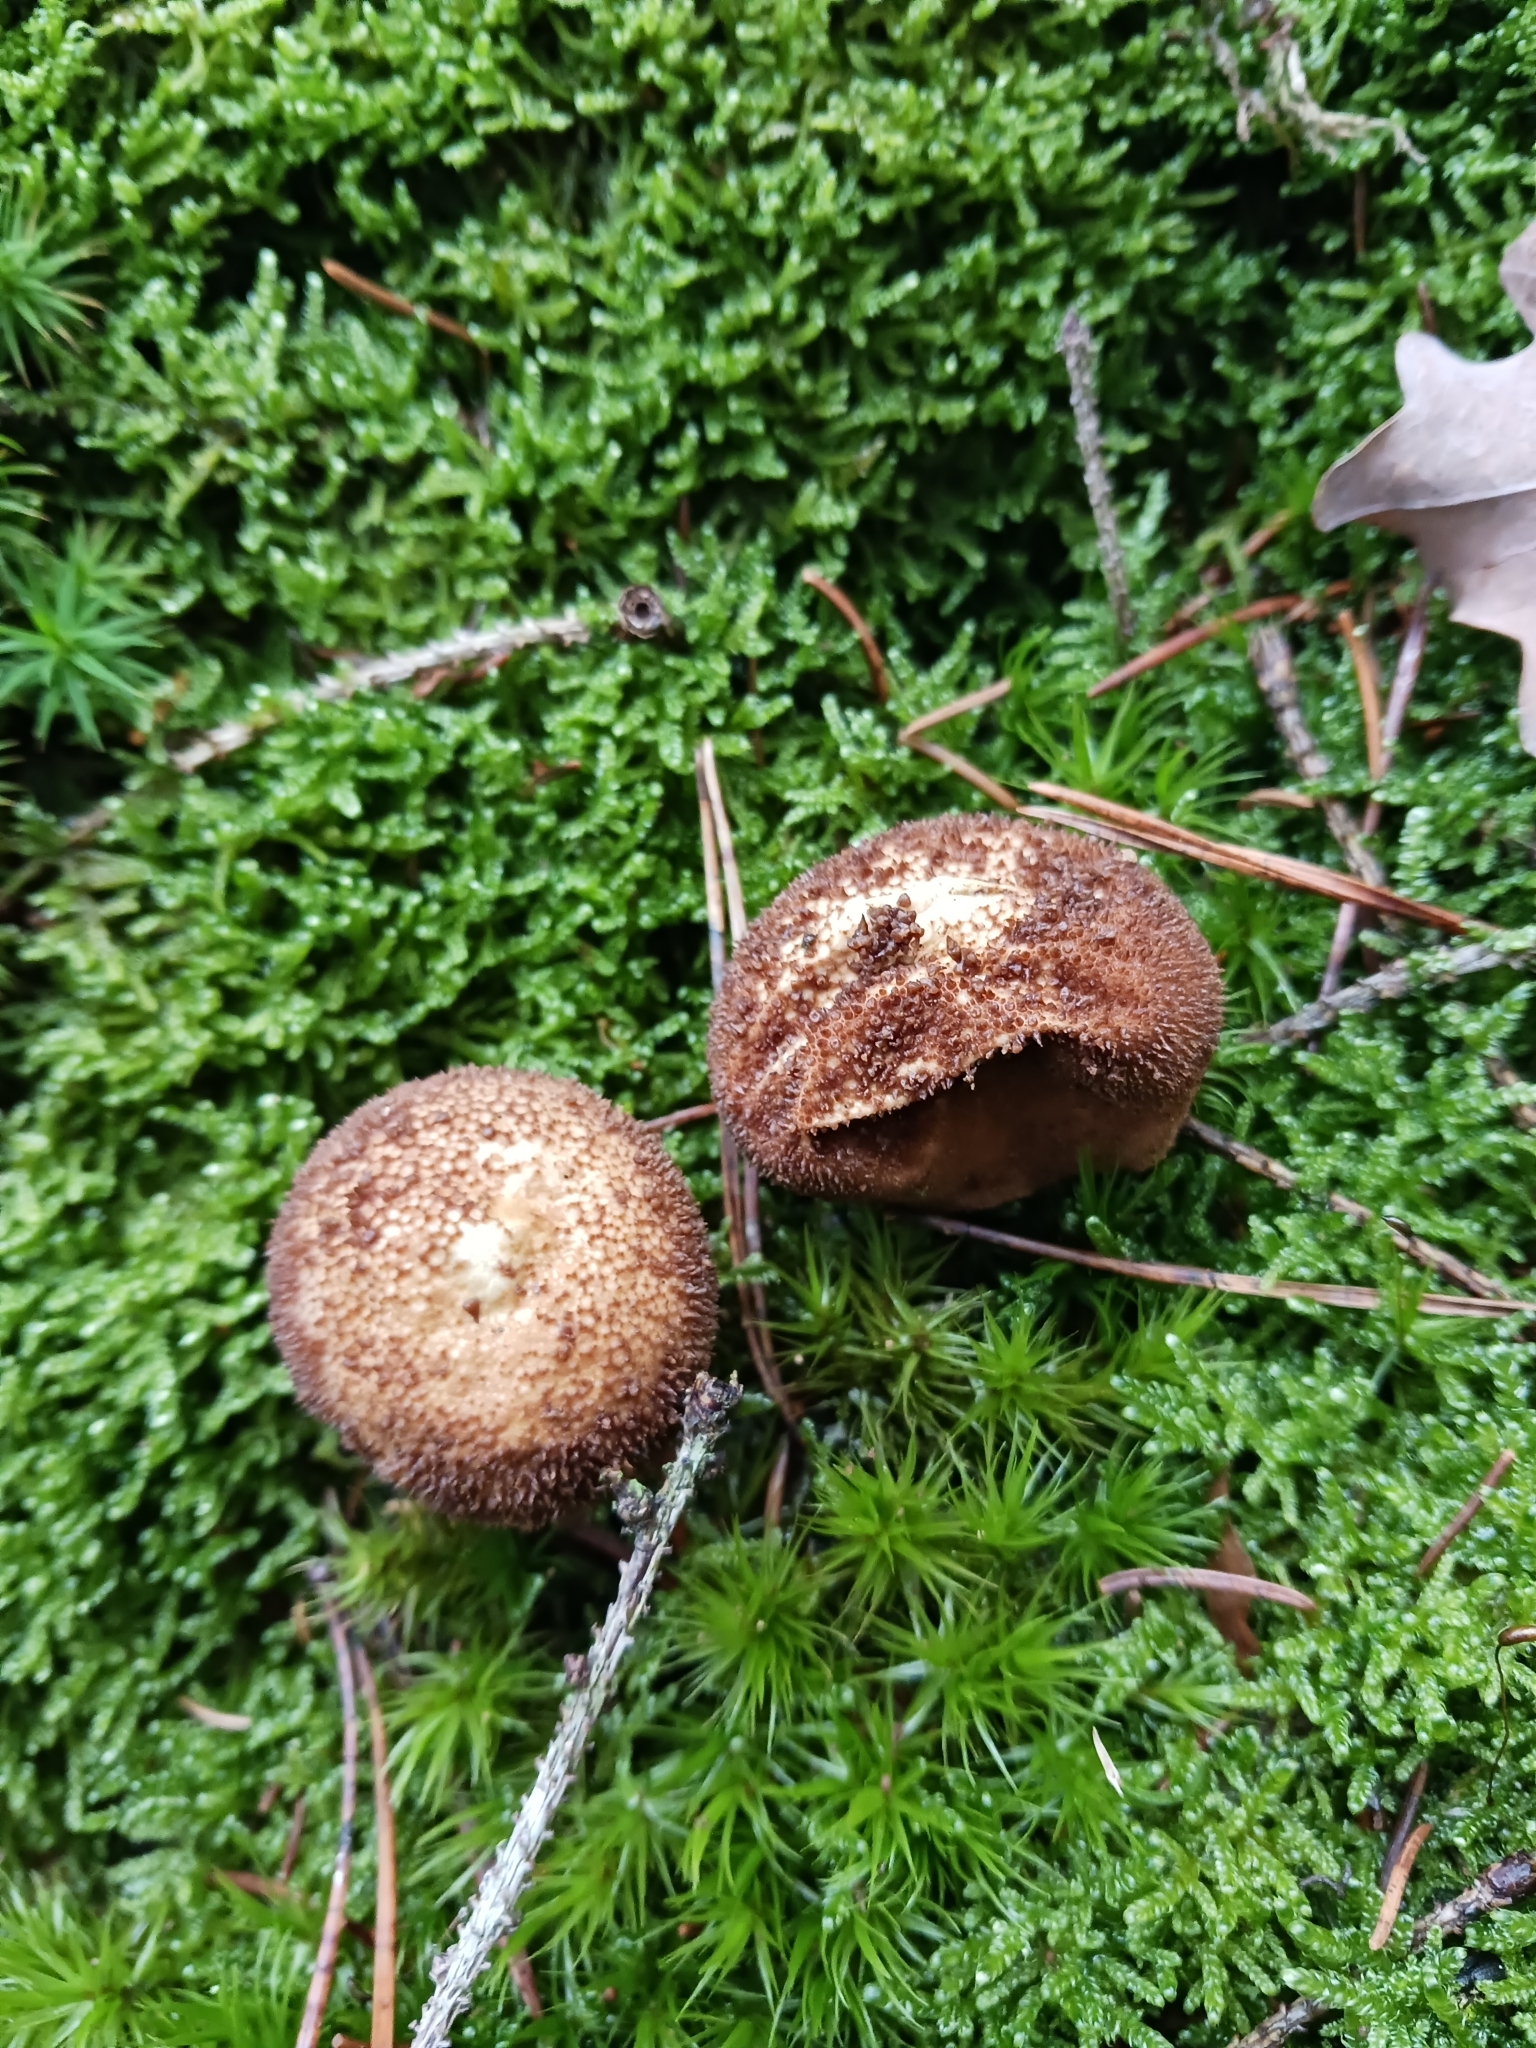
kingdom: Fungi
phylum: Basidiomycota
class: Agaricomycetes
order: Agaricales
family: Lycoperdaceae
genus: Lycoperdon
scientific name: Lycoperdon nigrescens
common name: Blackish puffball
